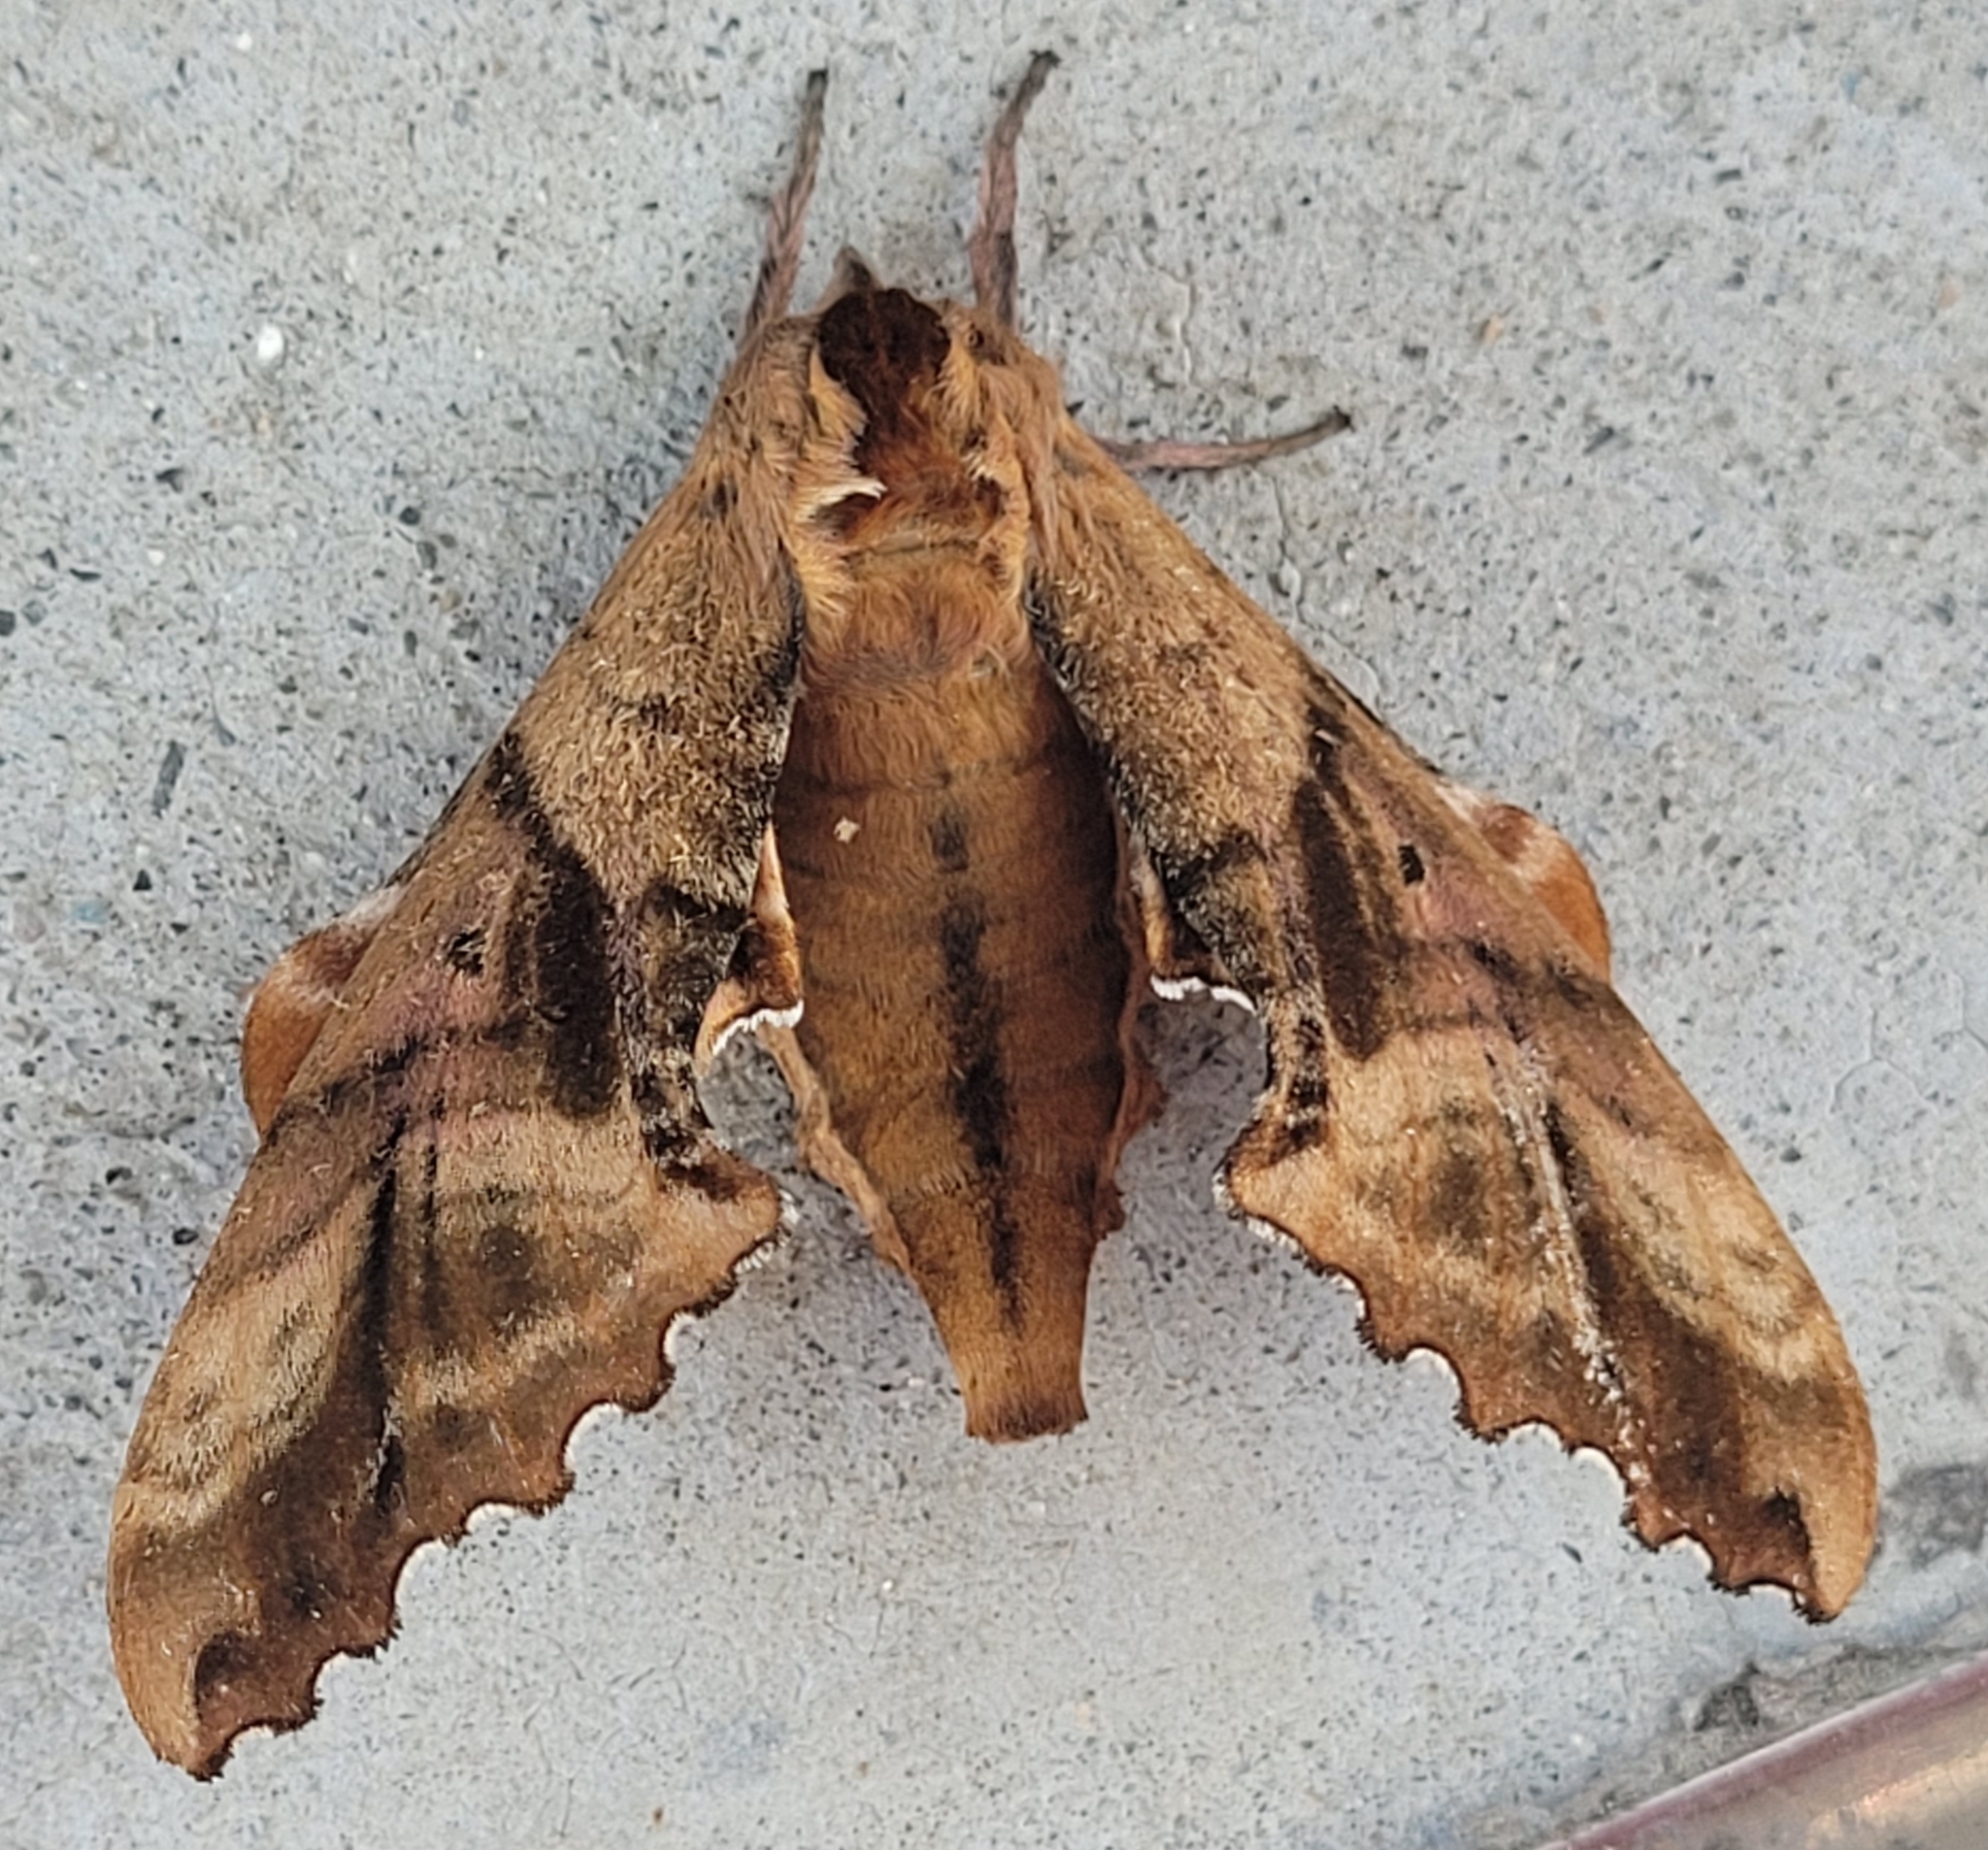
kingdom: Animalia
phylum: Arthropoda
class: Insecta
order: Lepidoptera
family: Sphingidae
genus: Paonias
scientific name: Paonias excaecata
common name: Blind-eyed sphinx
